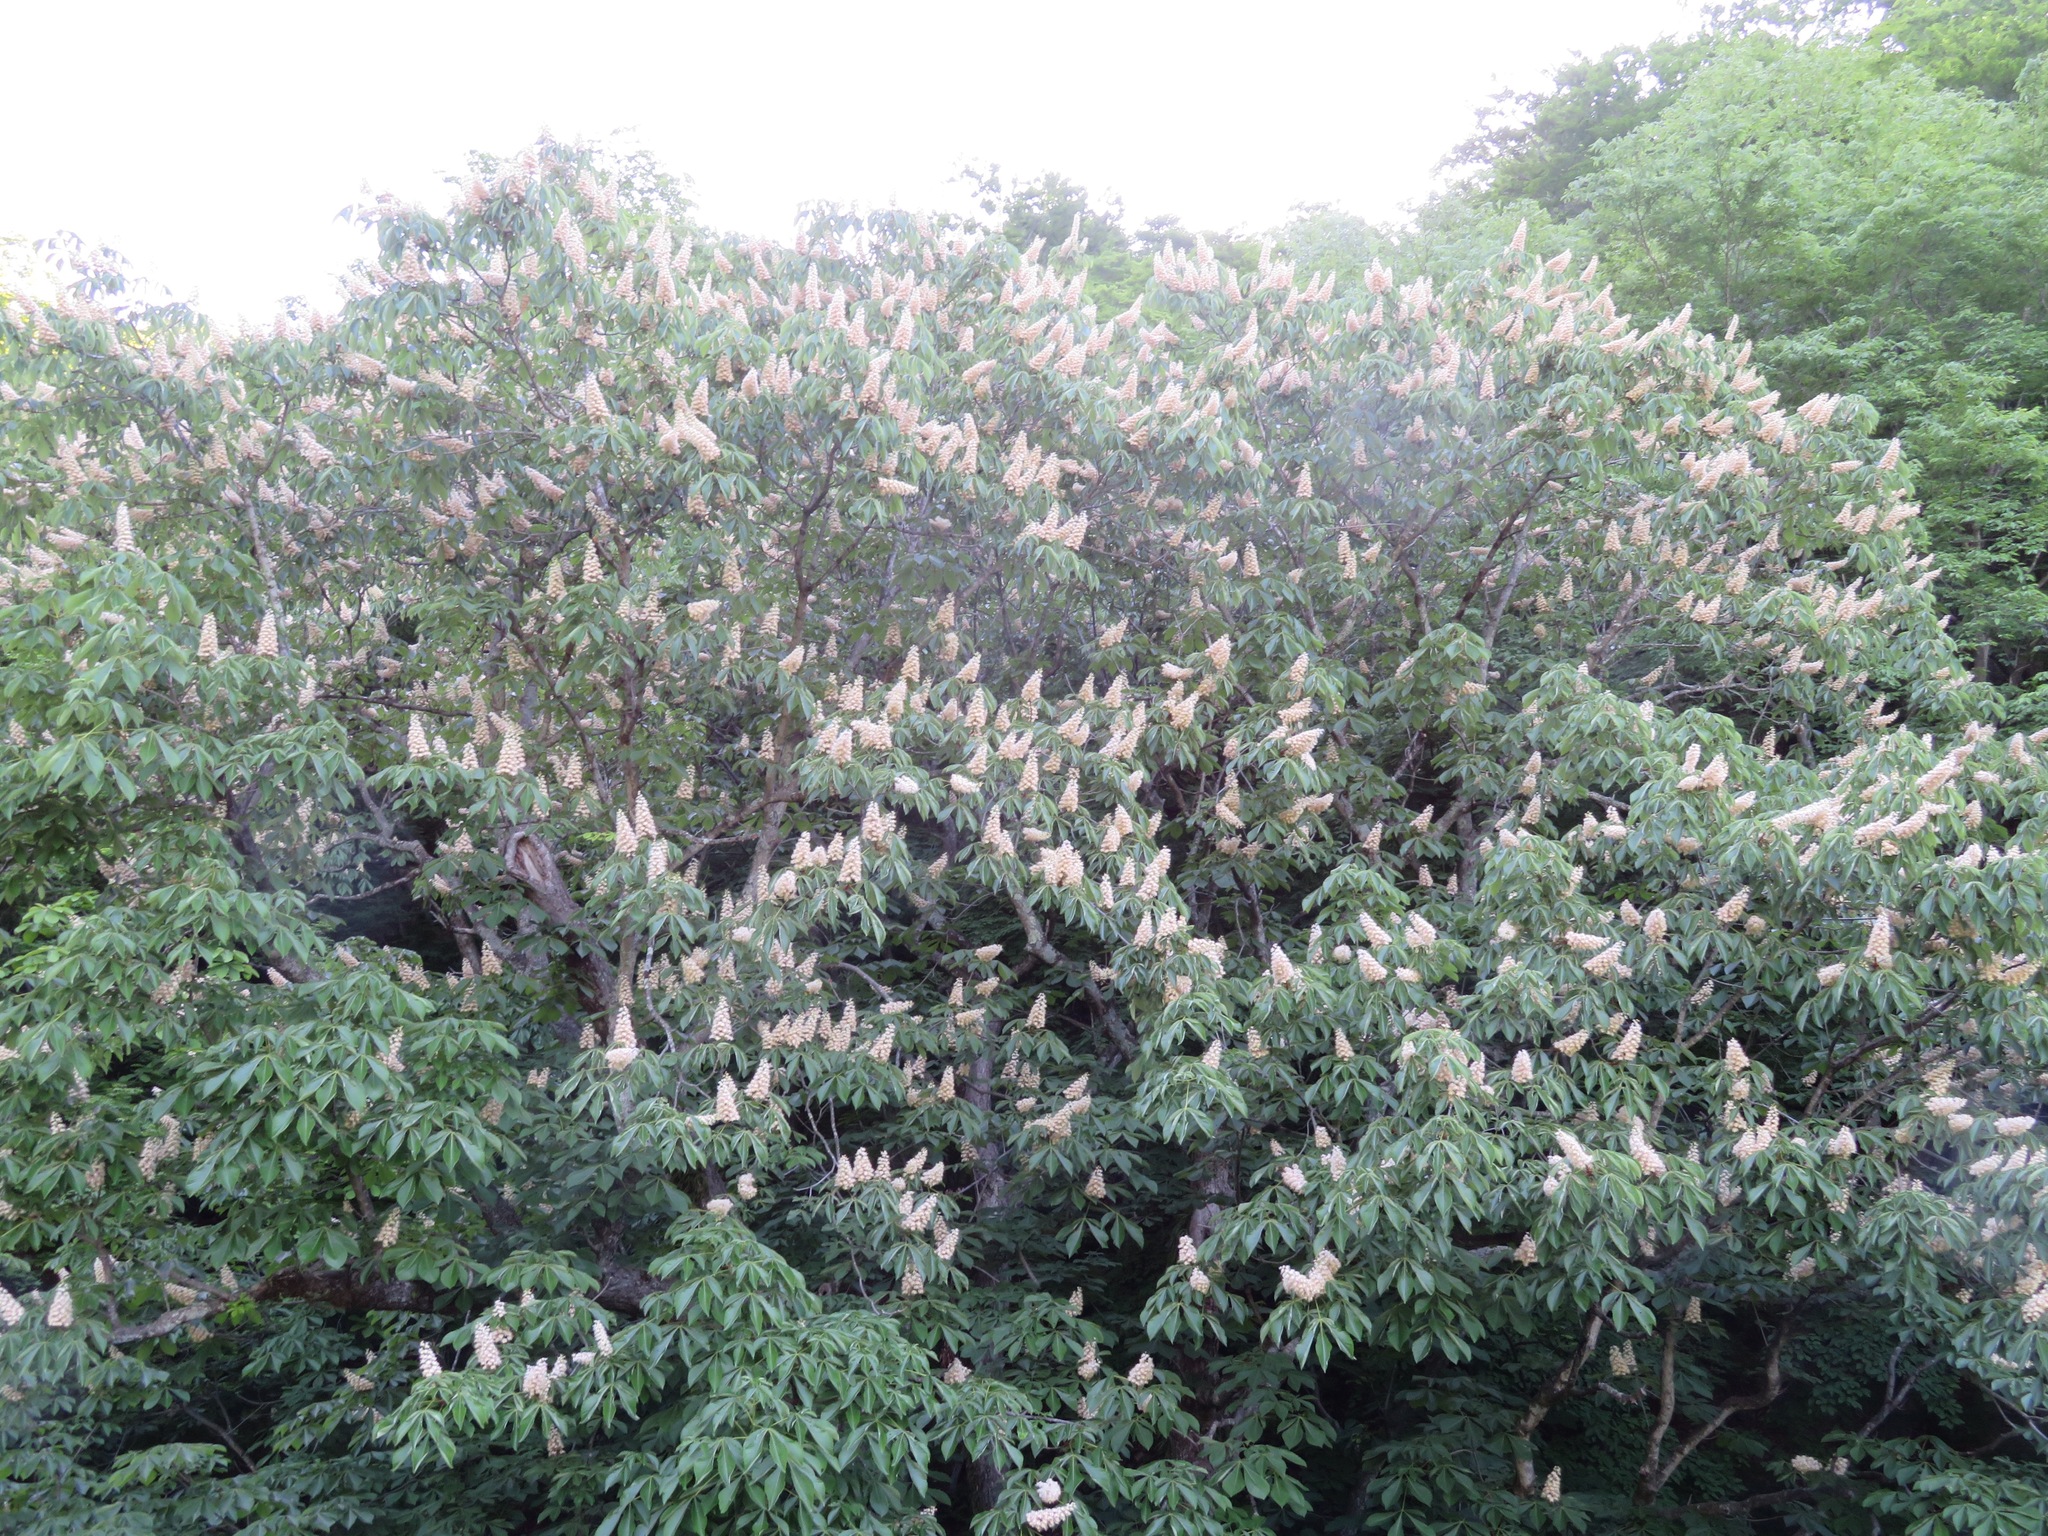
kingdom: Plantae
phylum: Tracheophyta
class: Magnoliopsida
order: Sapindales
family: Sapindaceae
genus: Aesculus
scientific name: Aesculus turbinata
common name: Japanese horse-chestnut
